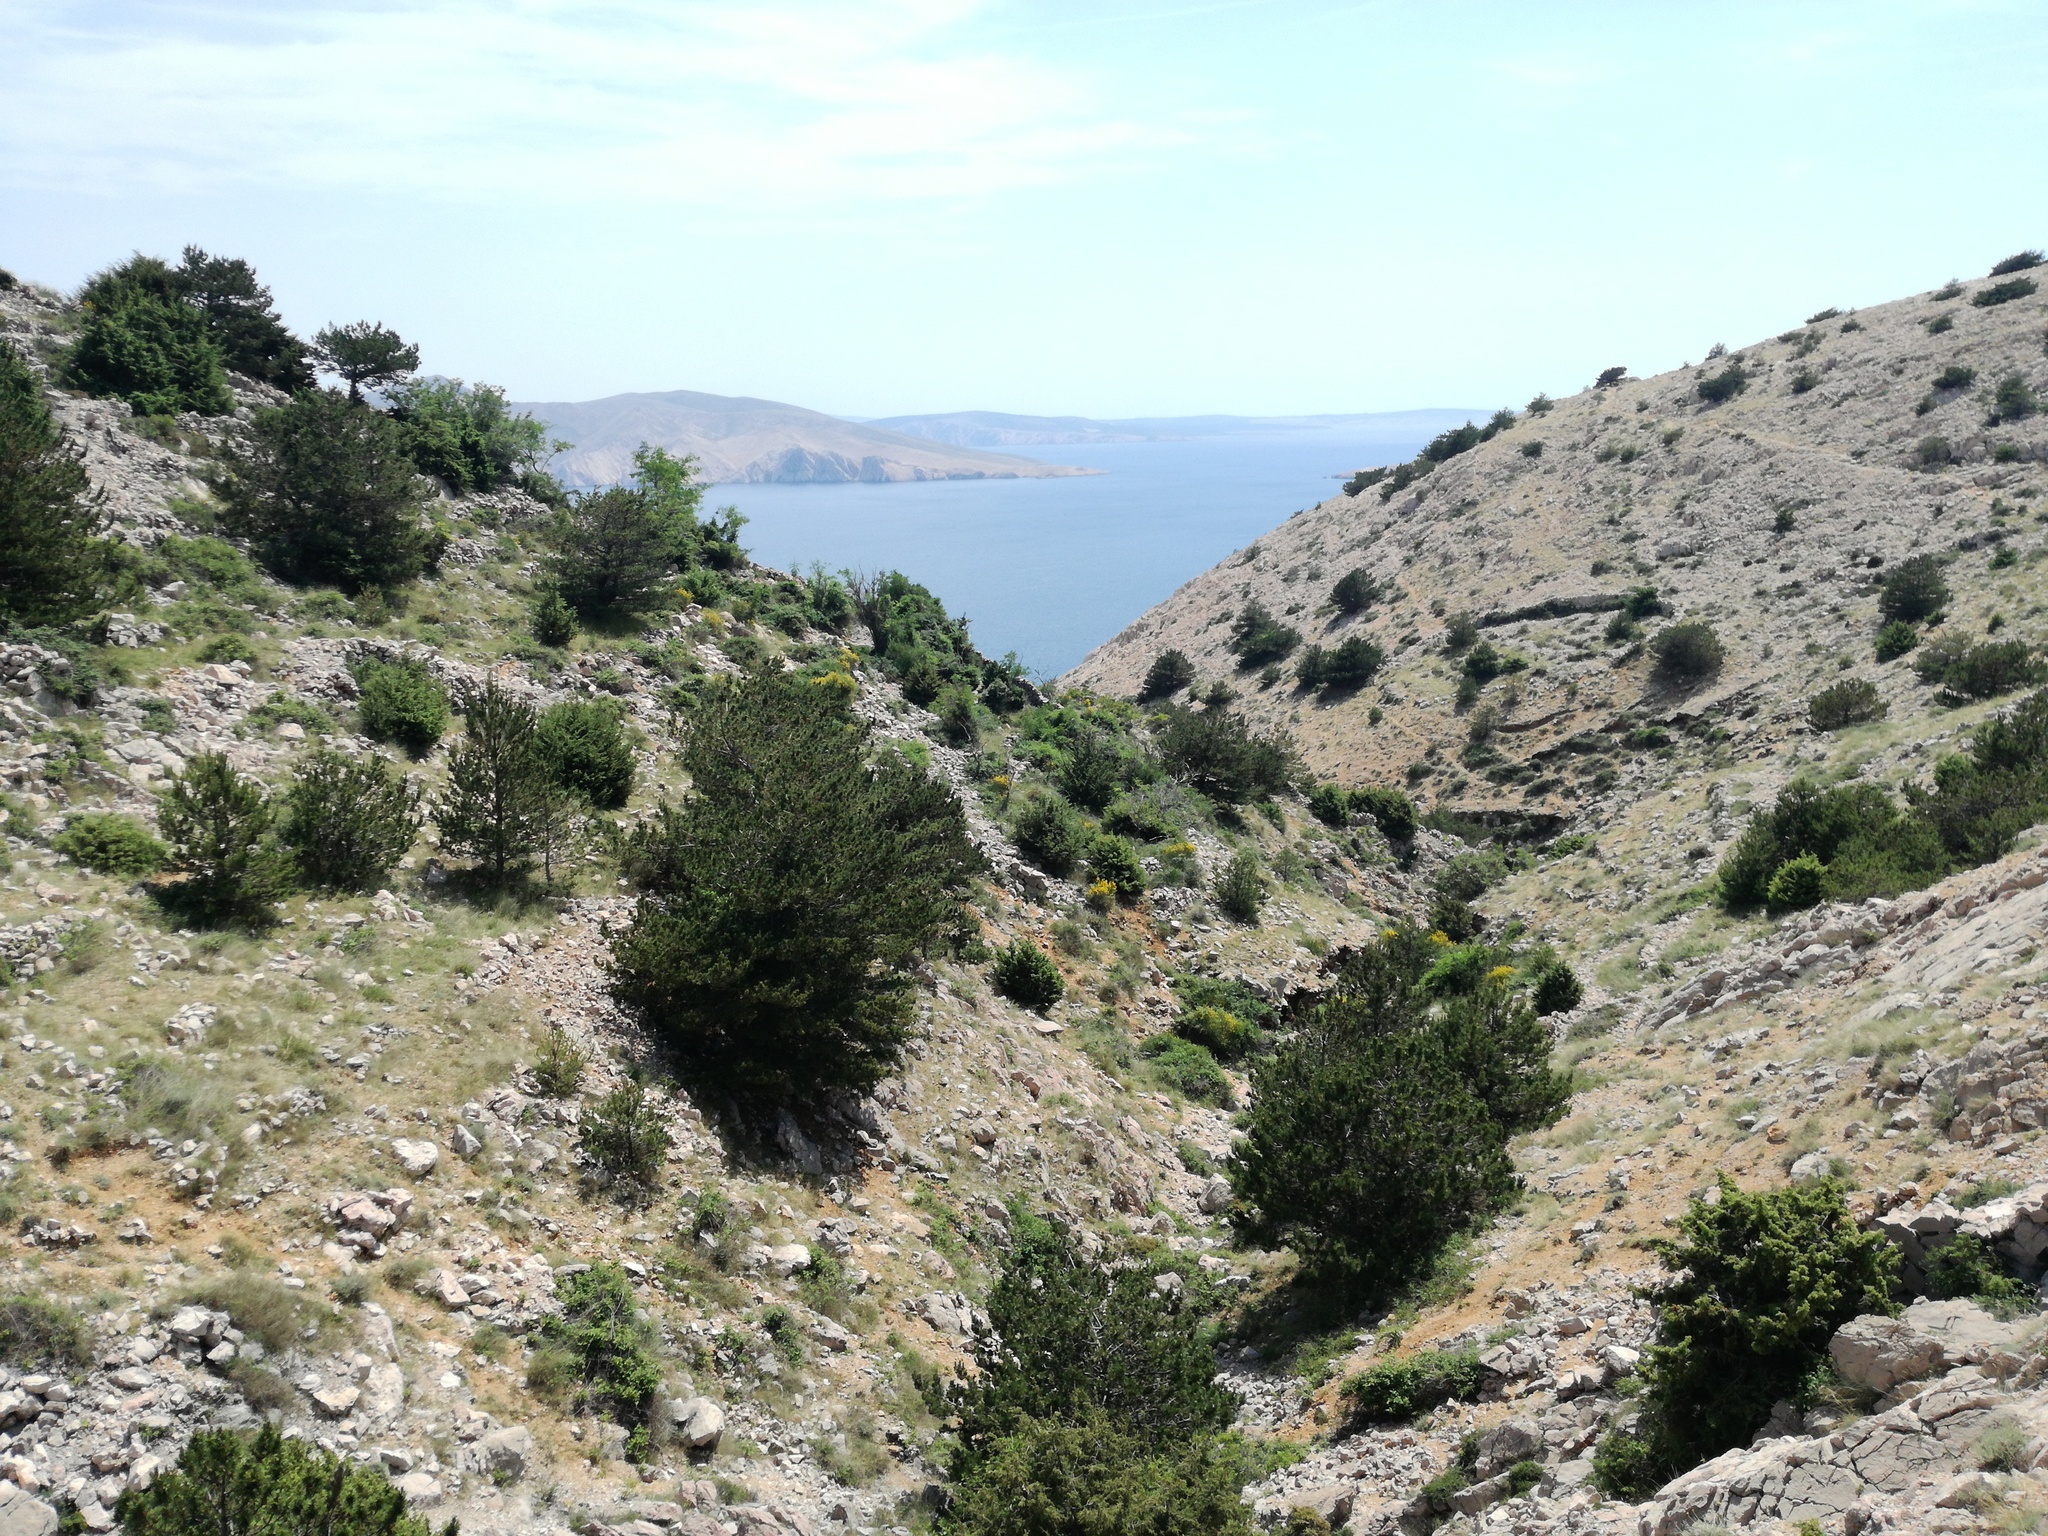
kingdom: Plantae
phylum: Tracheophyta
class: Pinopsida
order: Pinales
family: Pinaceae
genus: Pinus
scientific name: Pinus nigra
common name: Austrian pine
